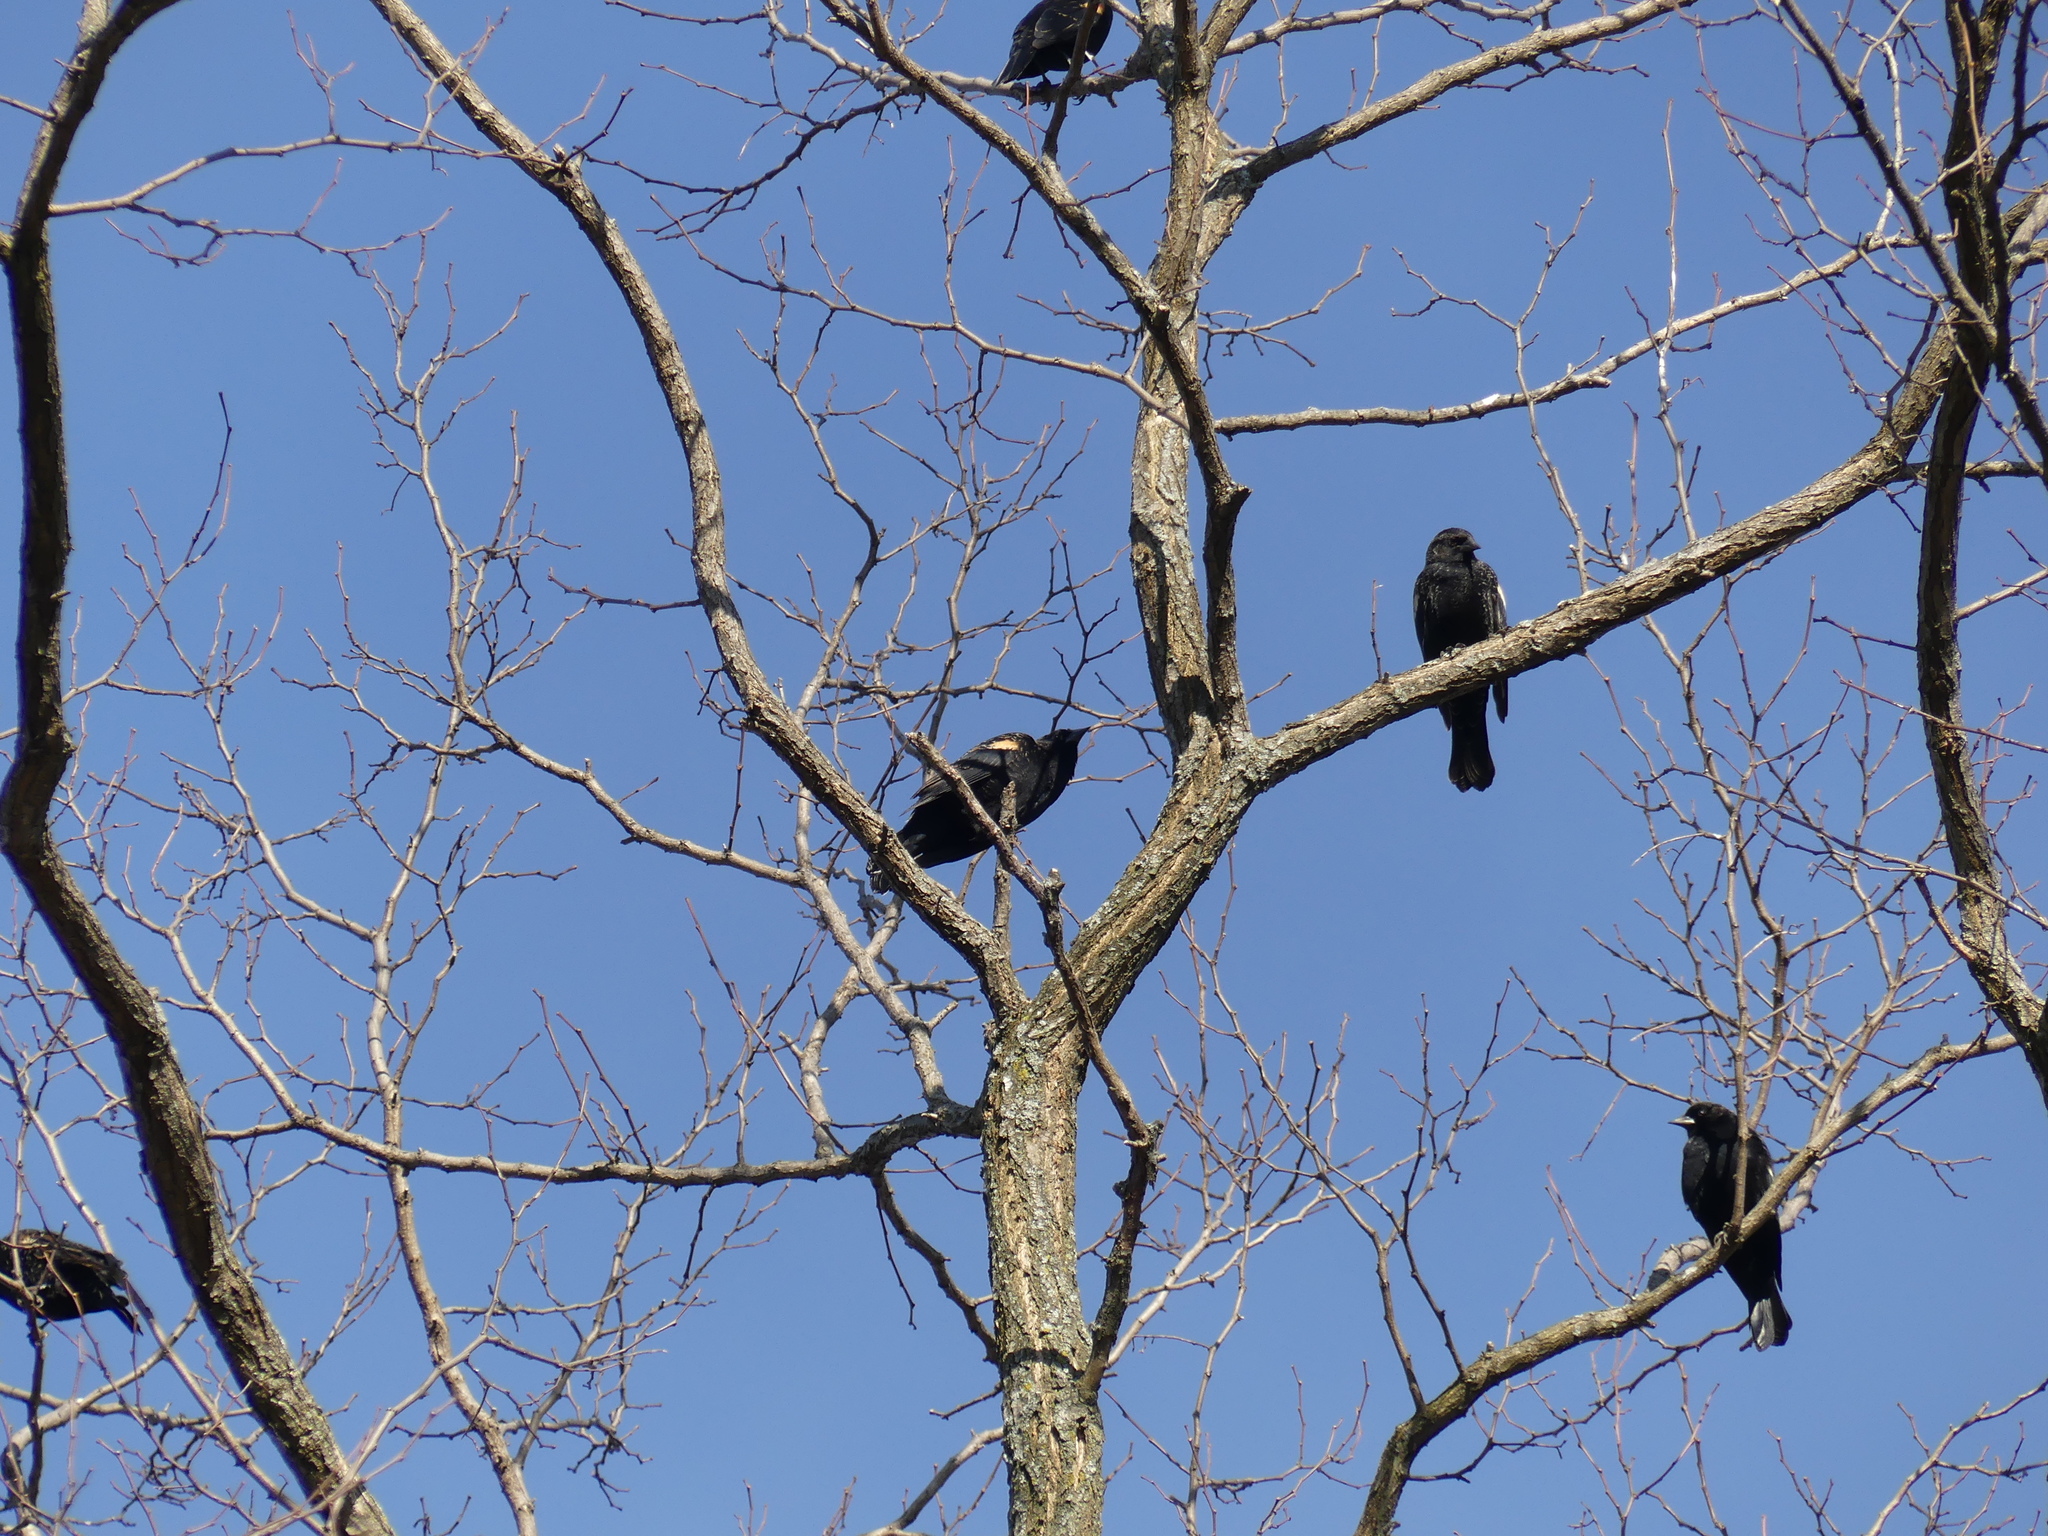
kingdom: Animalia
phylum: Chordata
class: Aves
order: Passeriformes
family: Icteridae
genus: Agelaius
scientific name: Agelaius phoeniceus
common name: Red-winged blackbird
